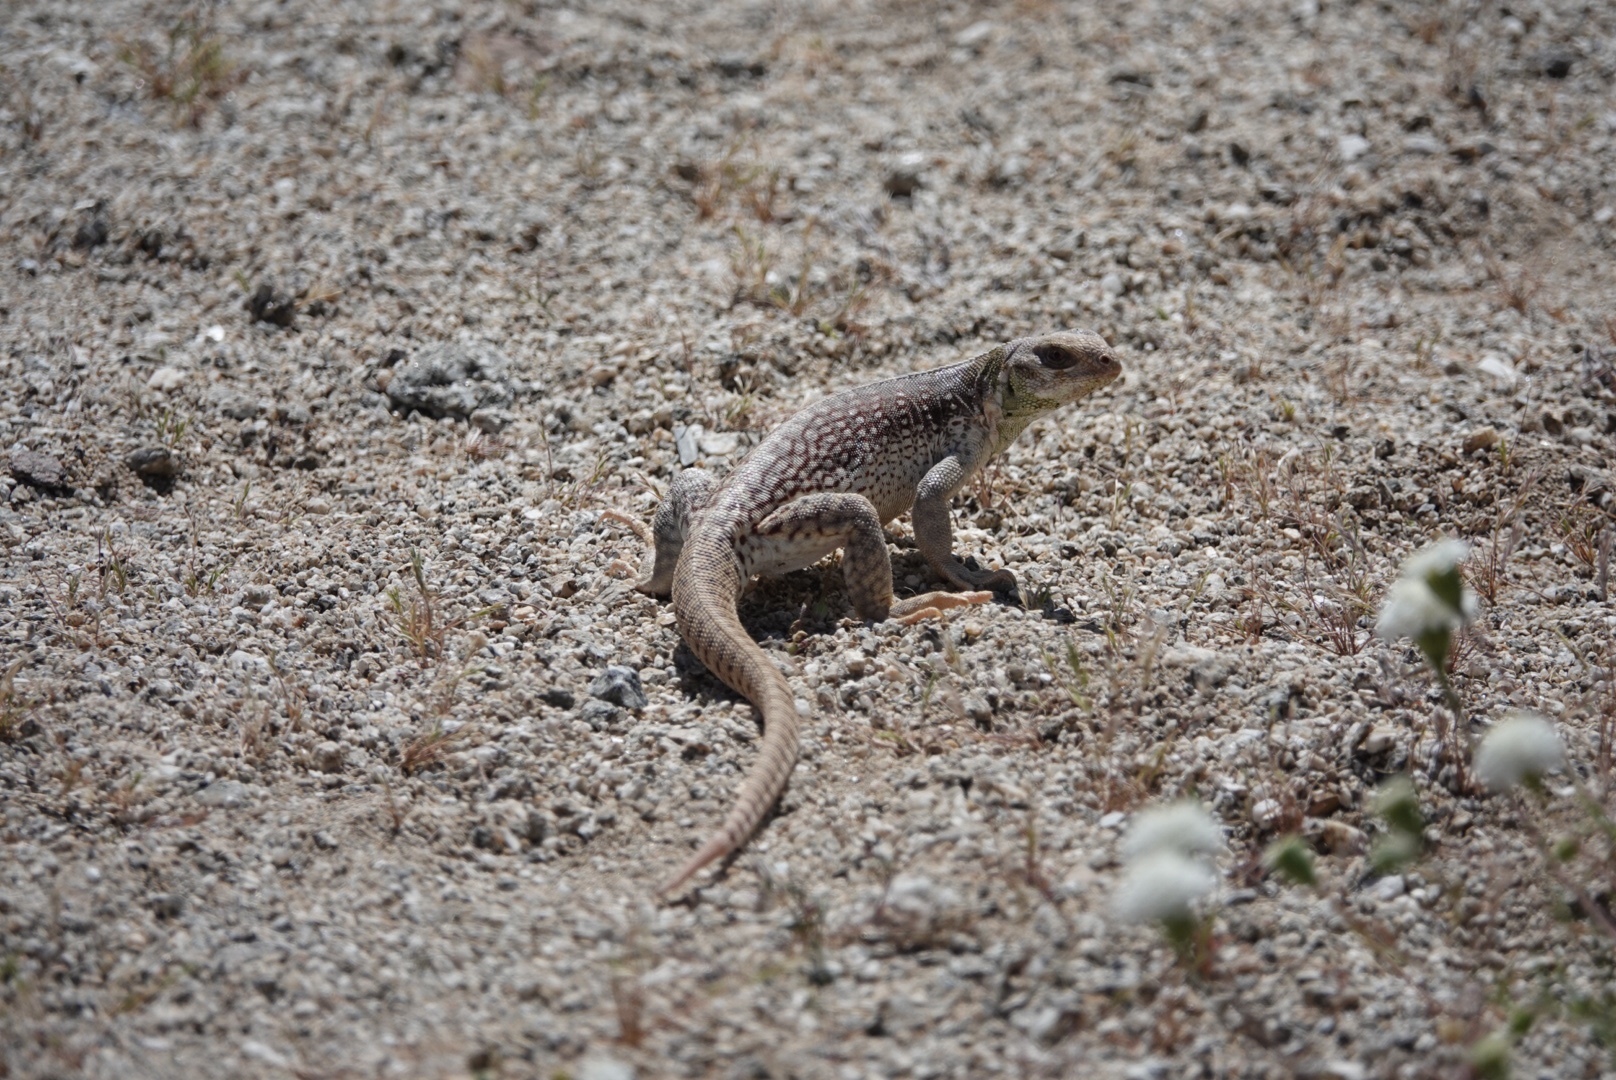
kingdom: Animalia
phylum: Chordata
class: Squamata
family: Iguanidae
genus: Dipsosaurus
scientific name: Dipsosaurus dorsalis
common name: Desert iguana
